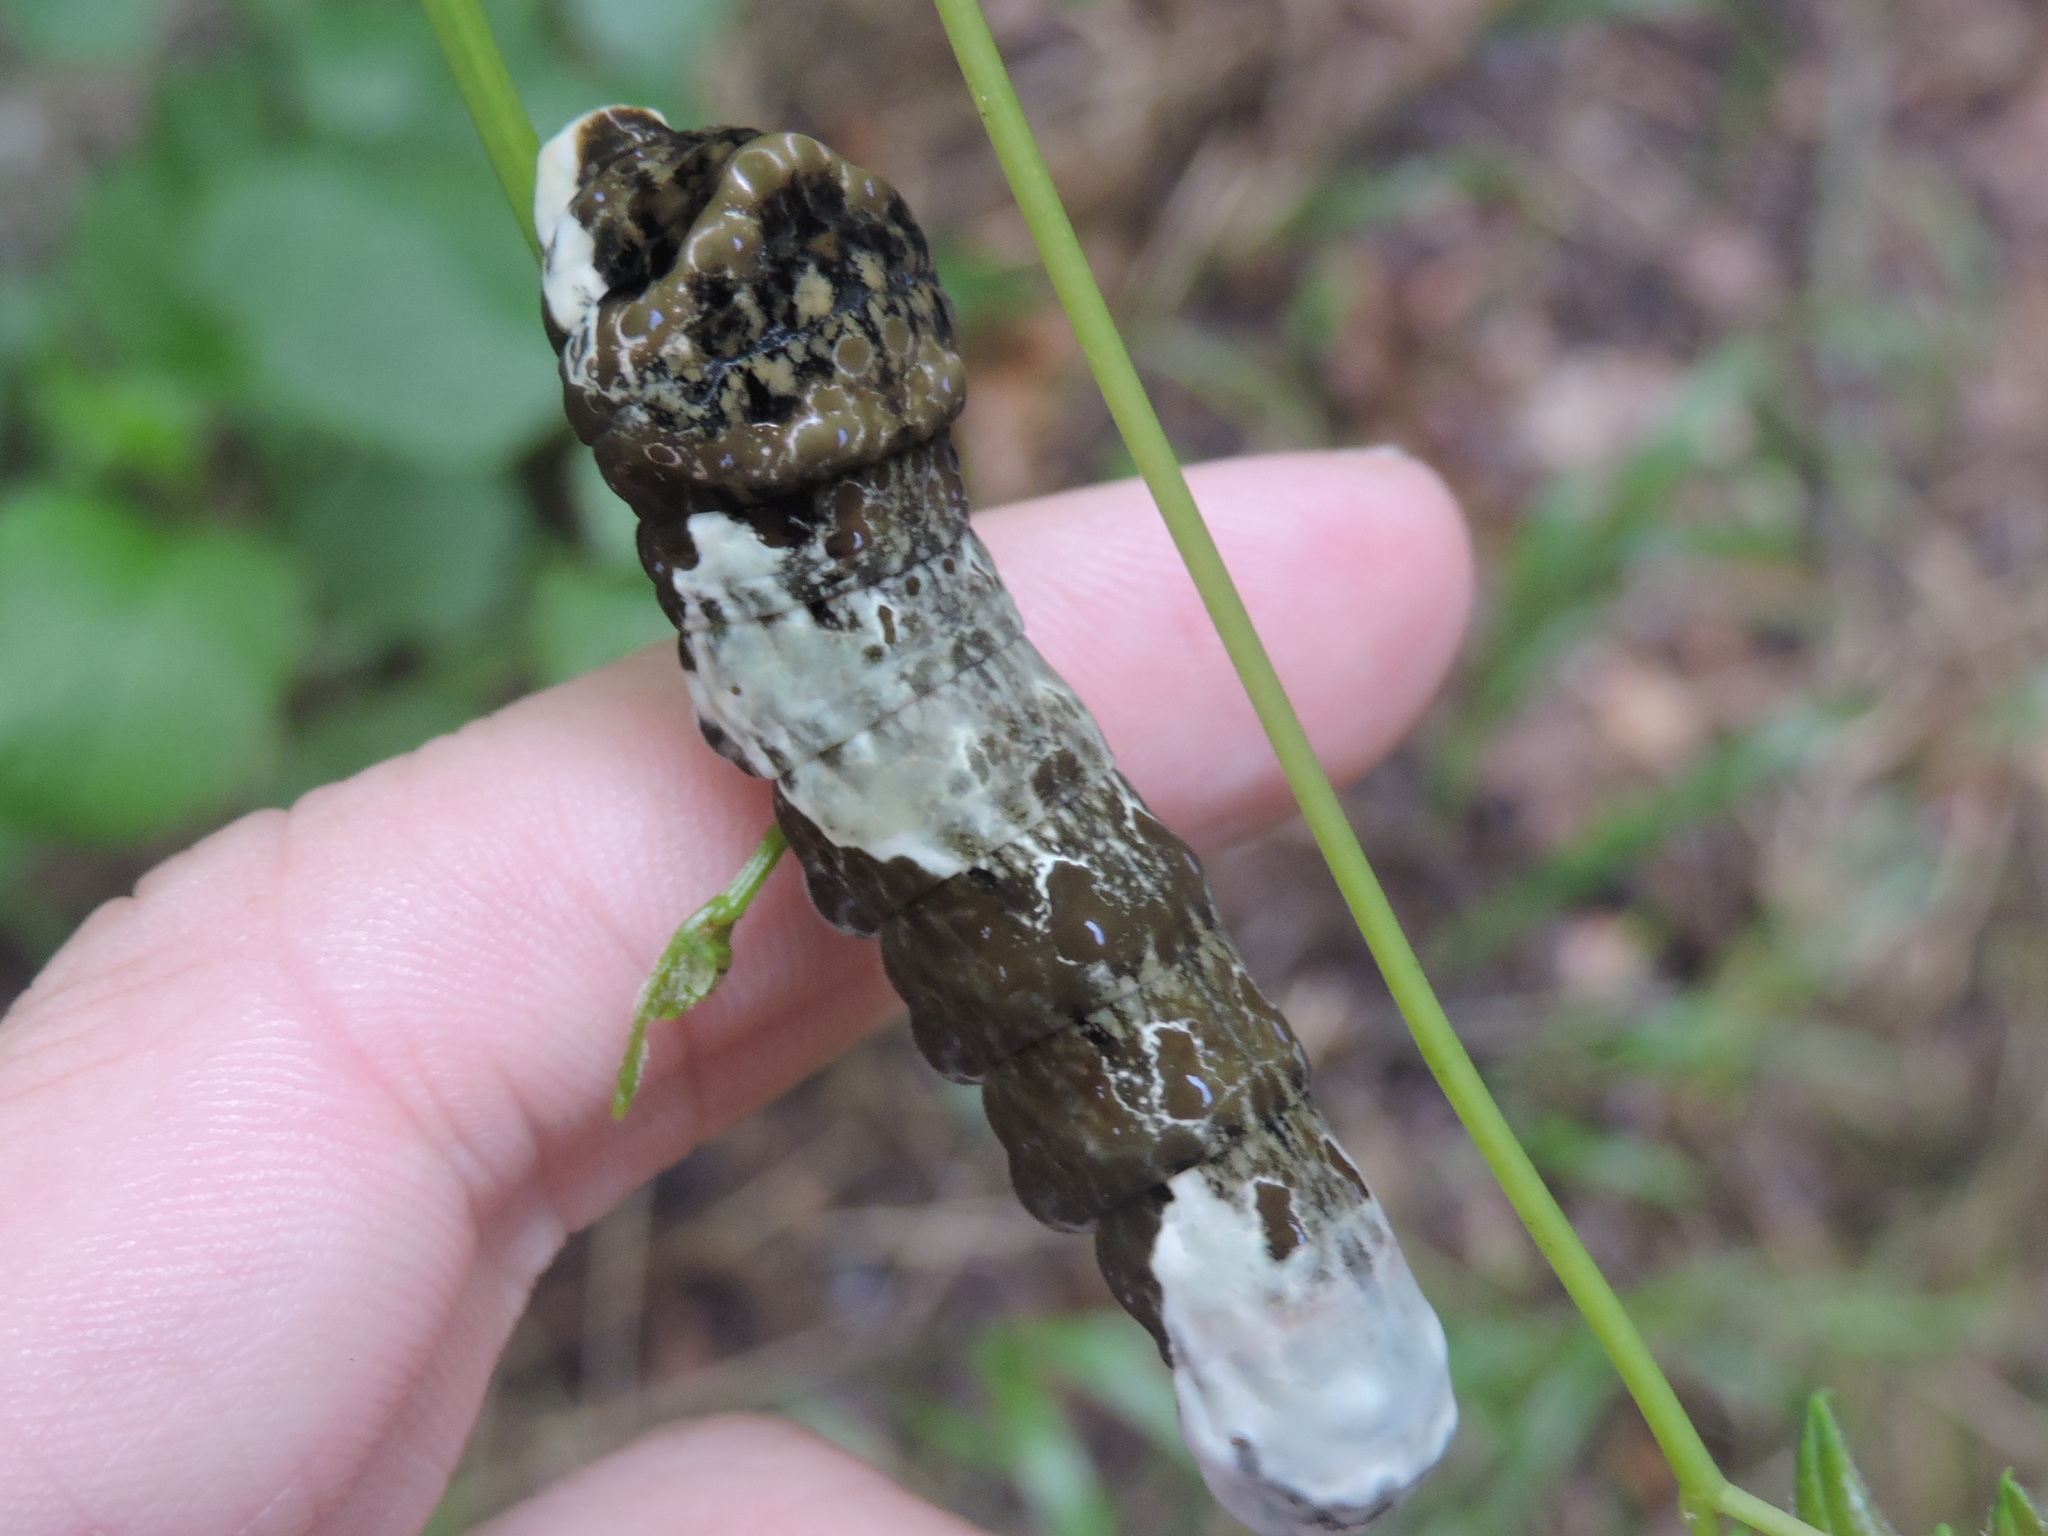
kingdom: Animalia
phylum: Arthropoda
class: Insecta
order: Lepidoptera
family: Papilionidae
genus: Papilio
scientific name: Papilio cresphontes
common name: Giant swallowtail
